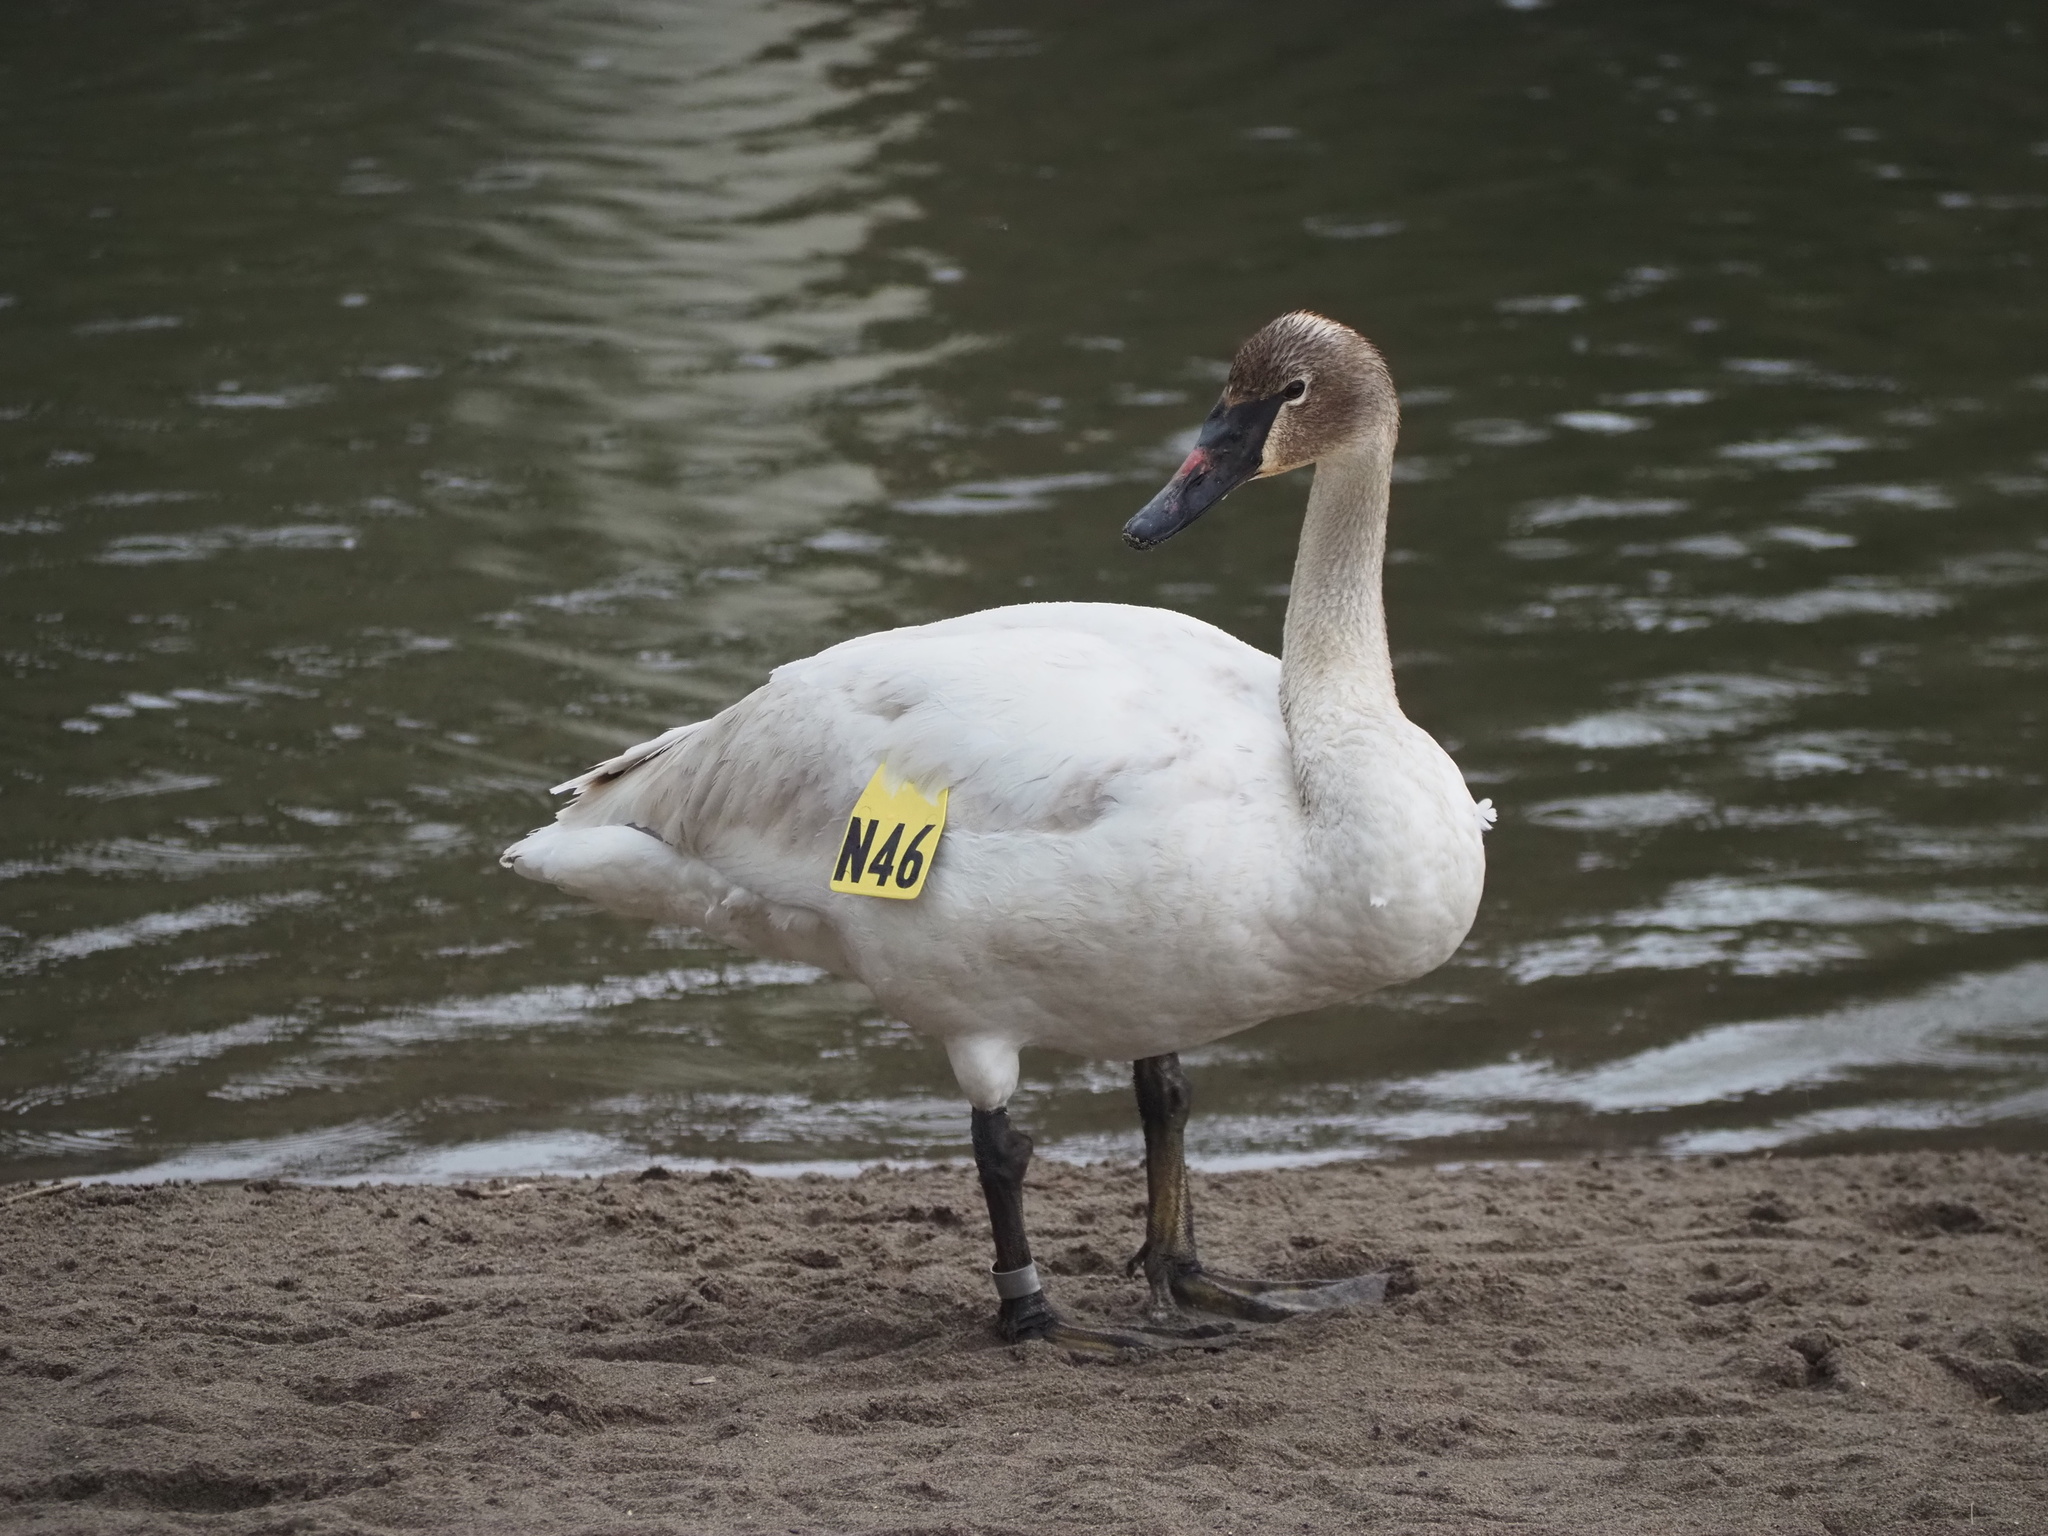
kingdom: Animalia
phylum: Chordata
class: Aves
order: Anseriformes
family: Anatidae
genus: Cygnus
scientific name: Cygnus buccinator
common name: Trumpeter swan
